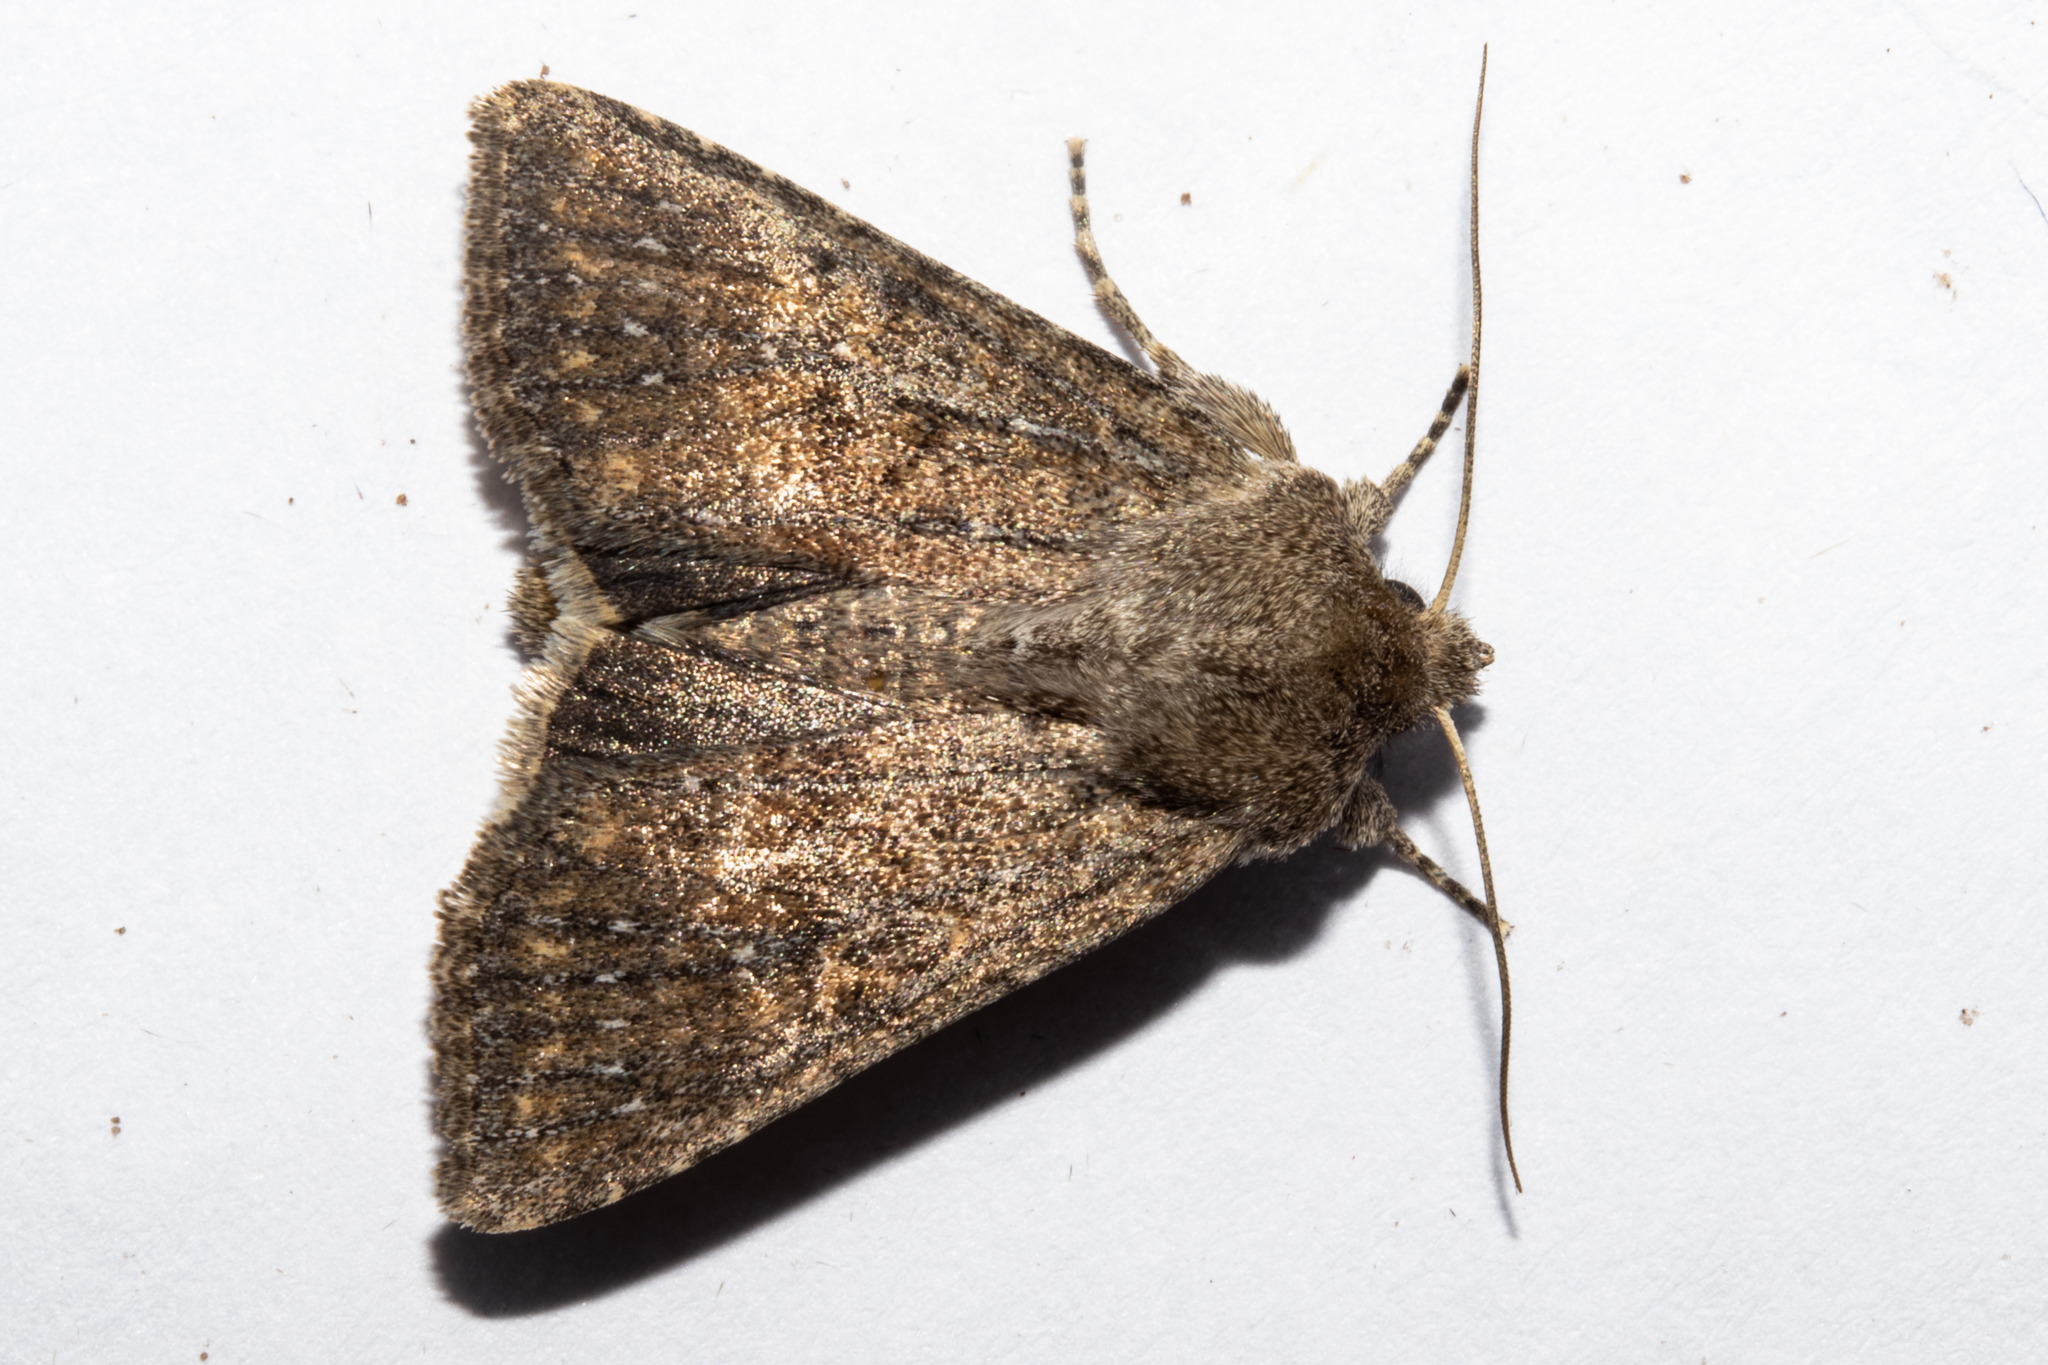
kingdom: Animalia
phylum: Arthropoda
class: Insecta
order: Lepidoptera
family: Noctuidae
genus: Physetica
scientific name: Physetica
